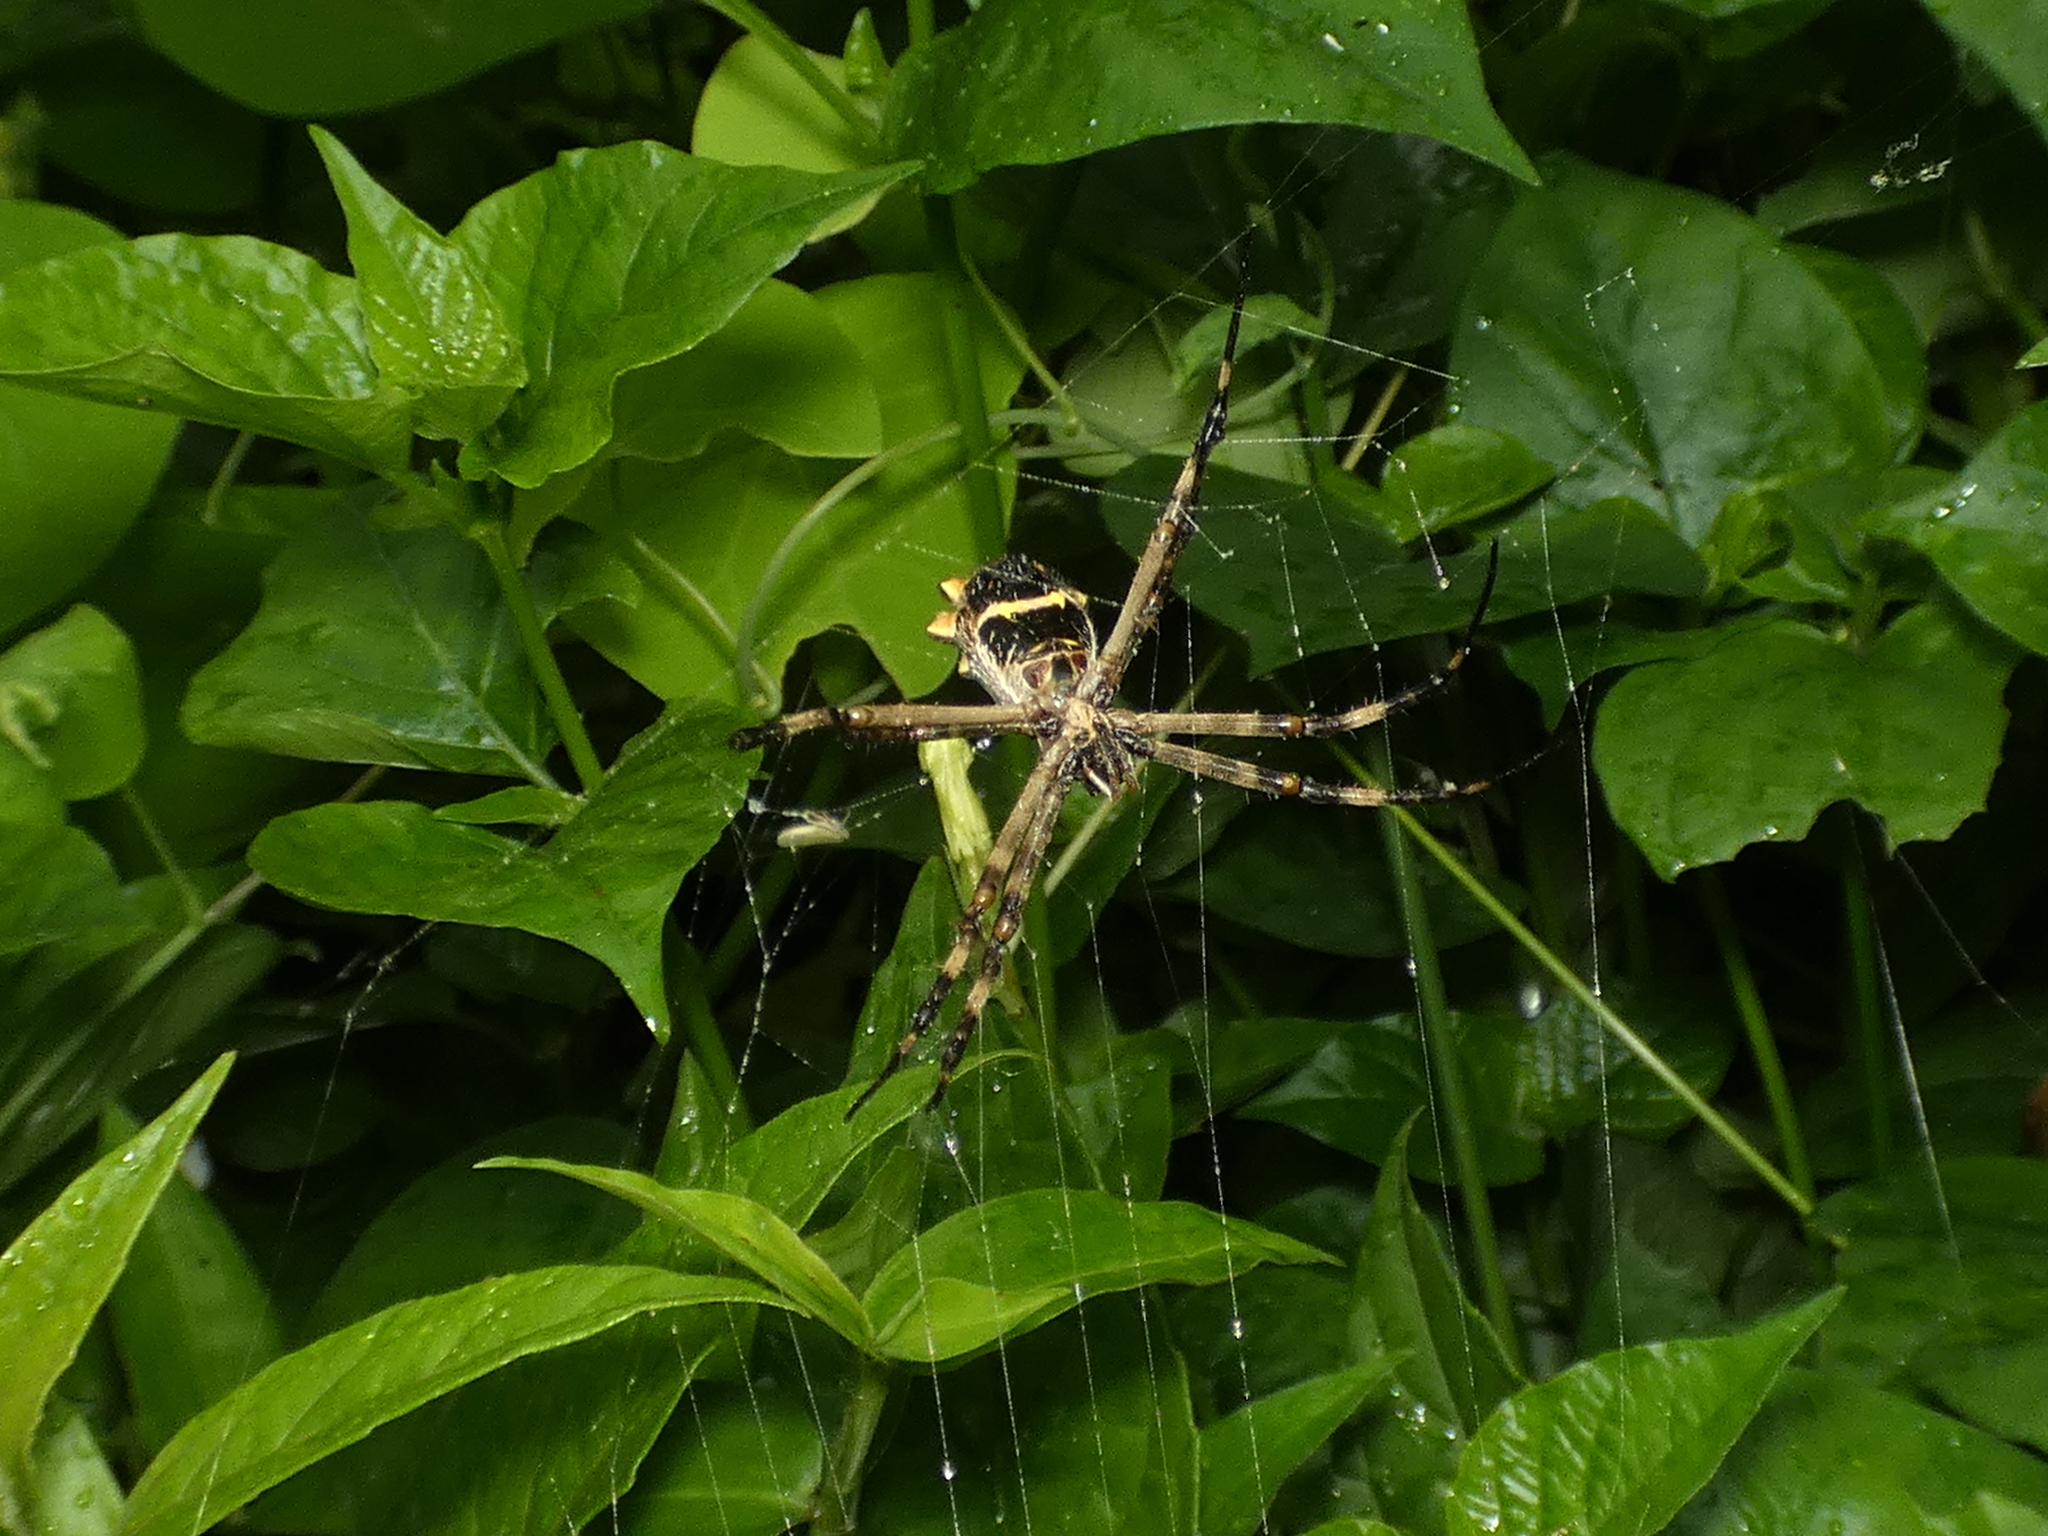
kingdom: Animalia
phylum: Arthropoda
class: Arachnida
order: Araneae
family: Araneidae
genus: Argiope
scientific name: Argiope argentata
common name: Orb weavers
